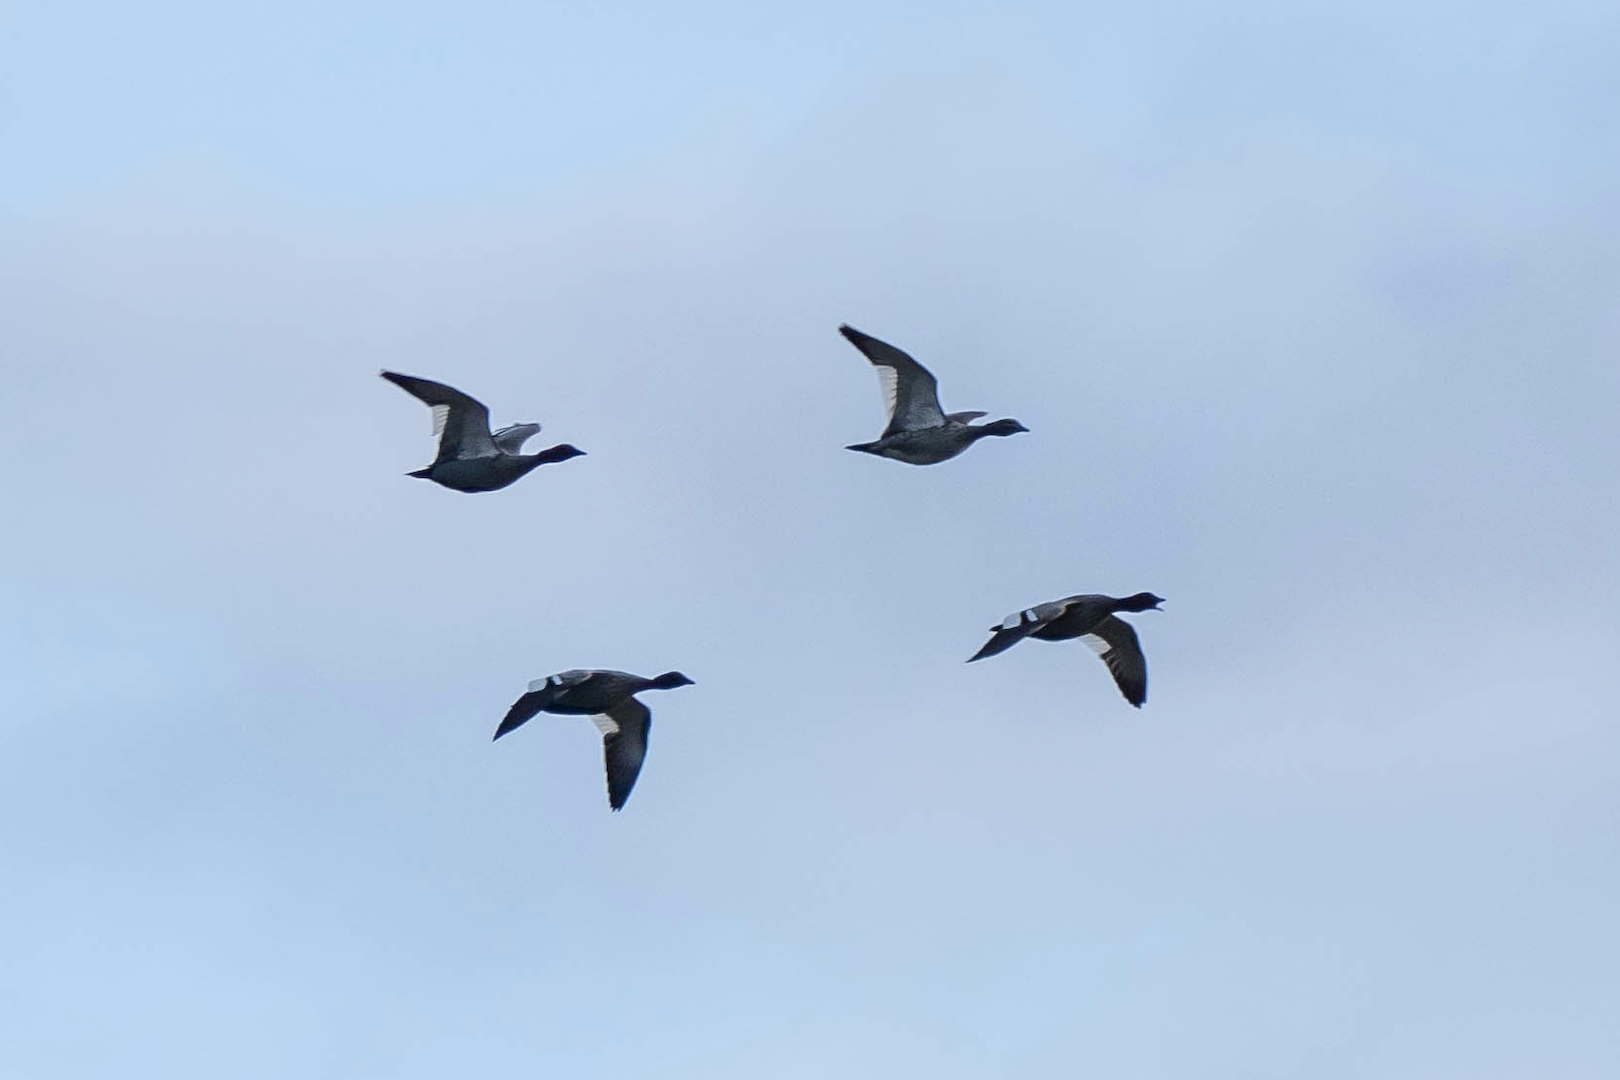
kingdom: Animalia
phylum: Chordata
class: Aves
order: Anseriformes
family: Anatidae
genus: Chenonetta
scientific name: Chenonetta jubata
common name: Maned duck
